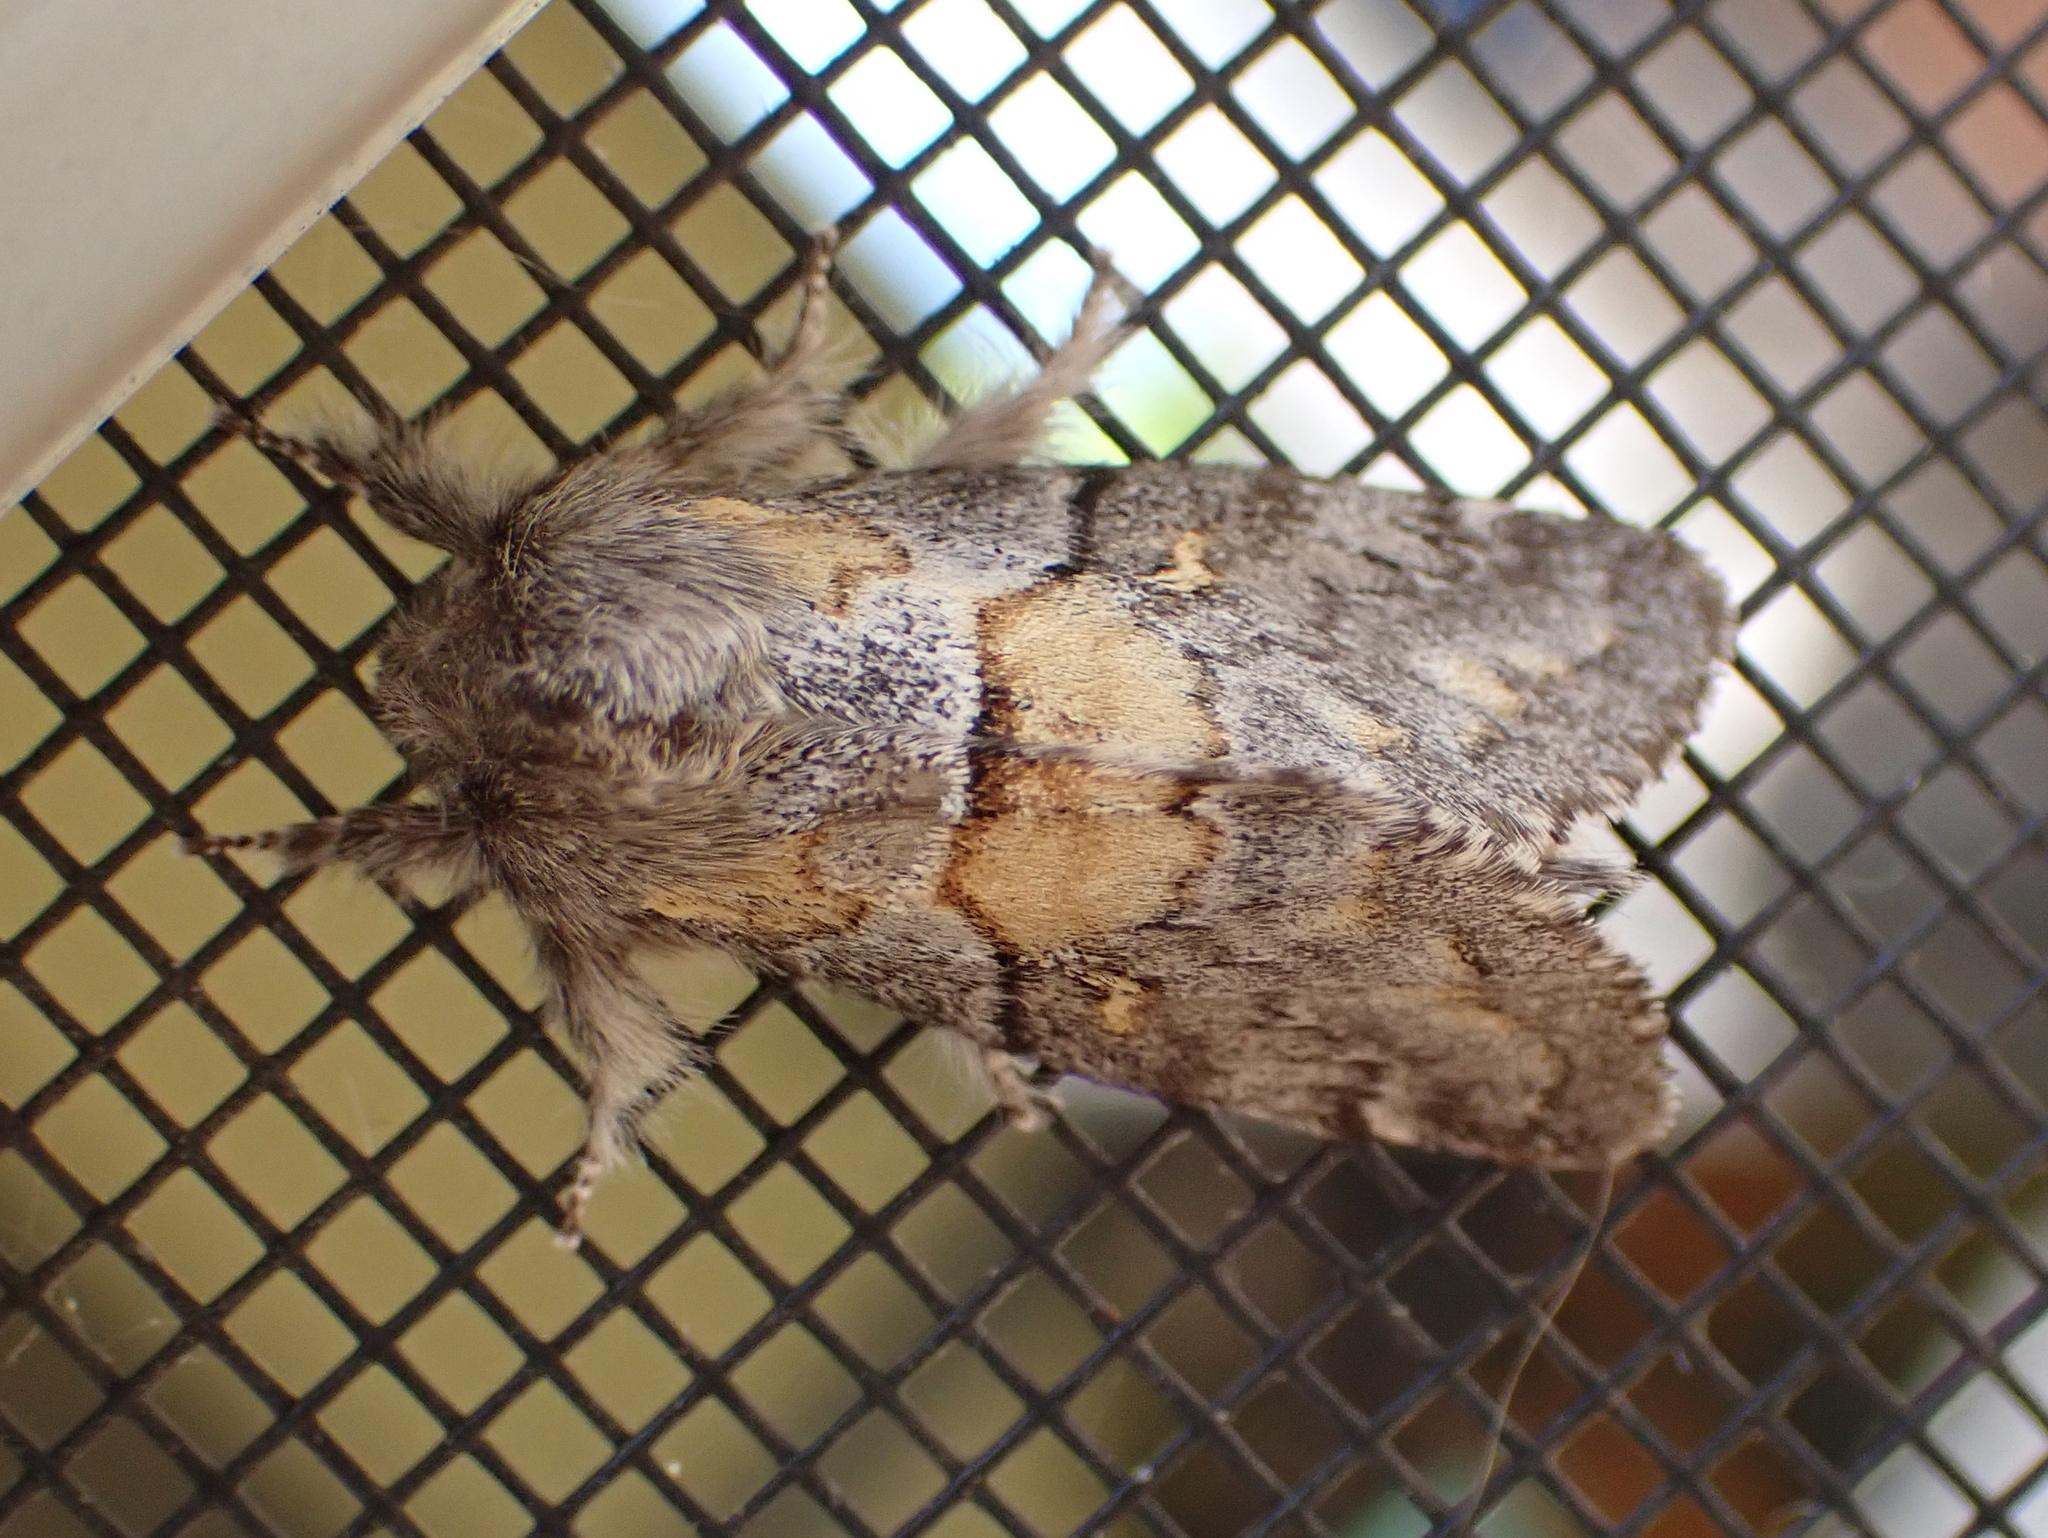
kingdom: Animalia
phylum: Arthropoda
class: Insecta
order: Lepidoptera
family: Notodontidae
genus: Gluphisia
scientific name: Gluphisia avimacula
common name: Four-spotted gluphisia moth
